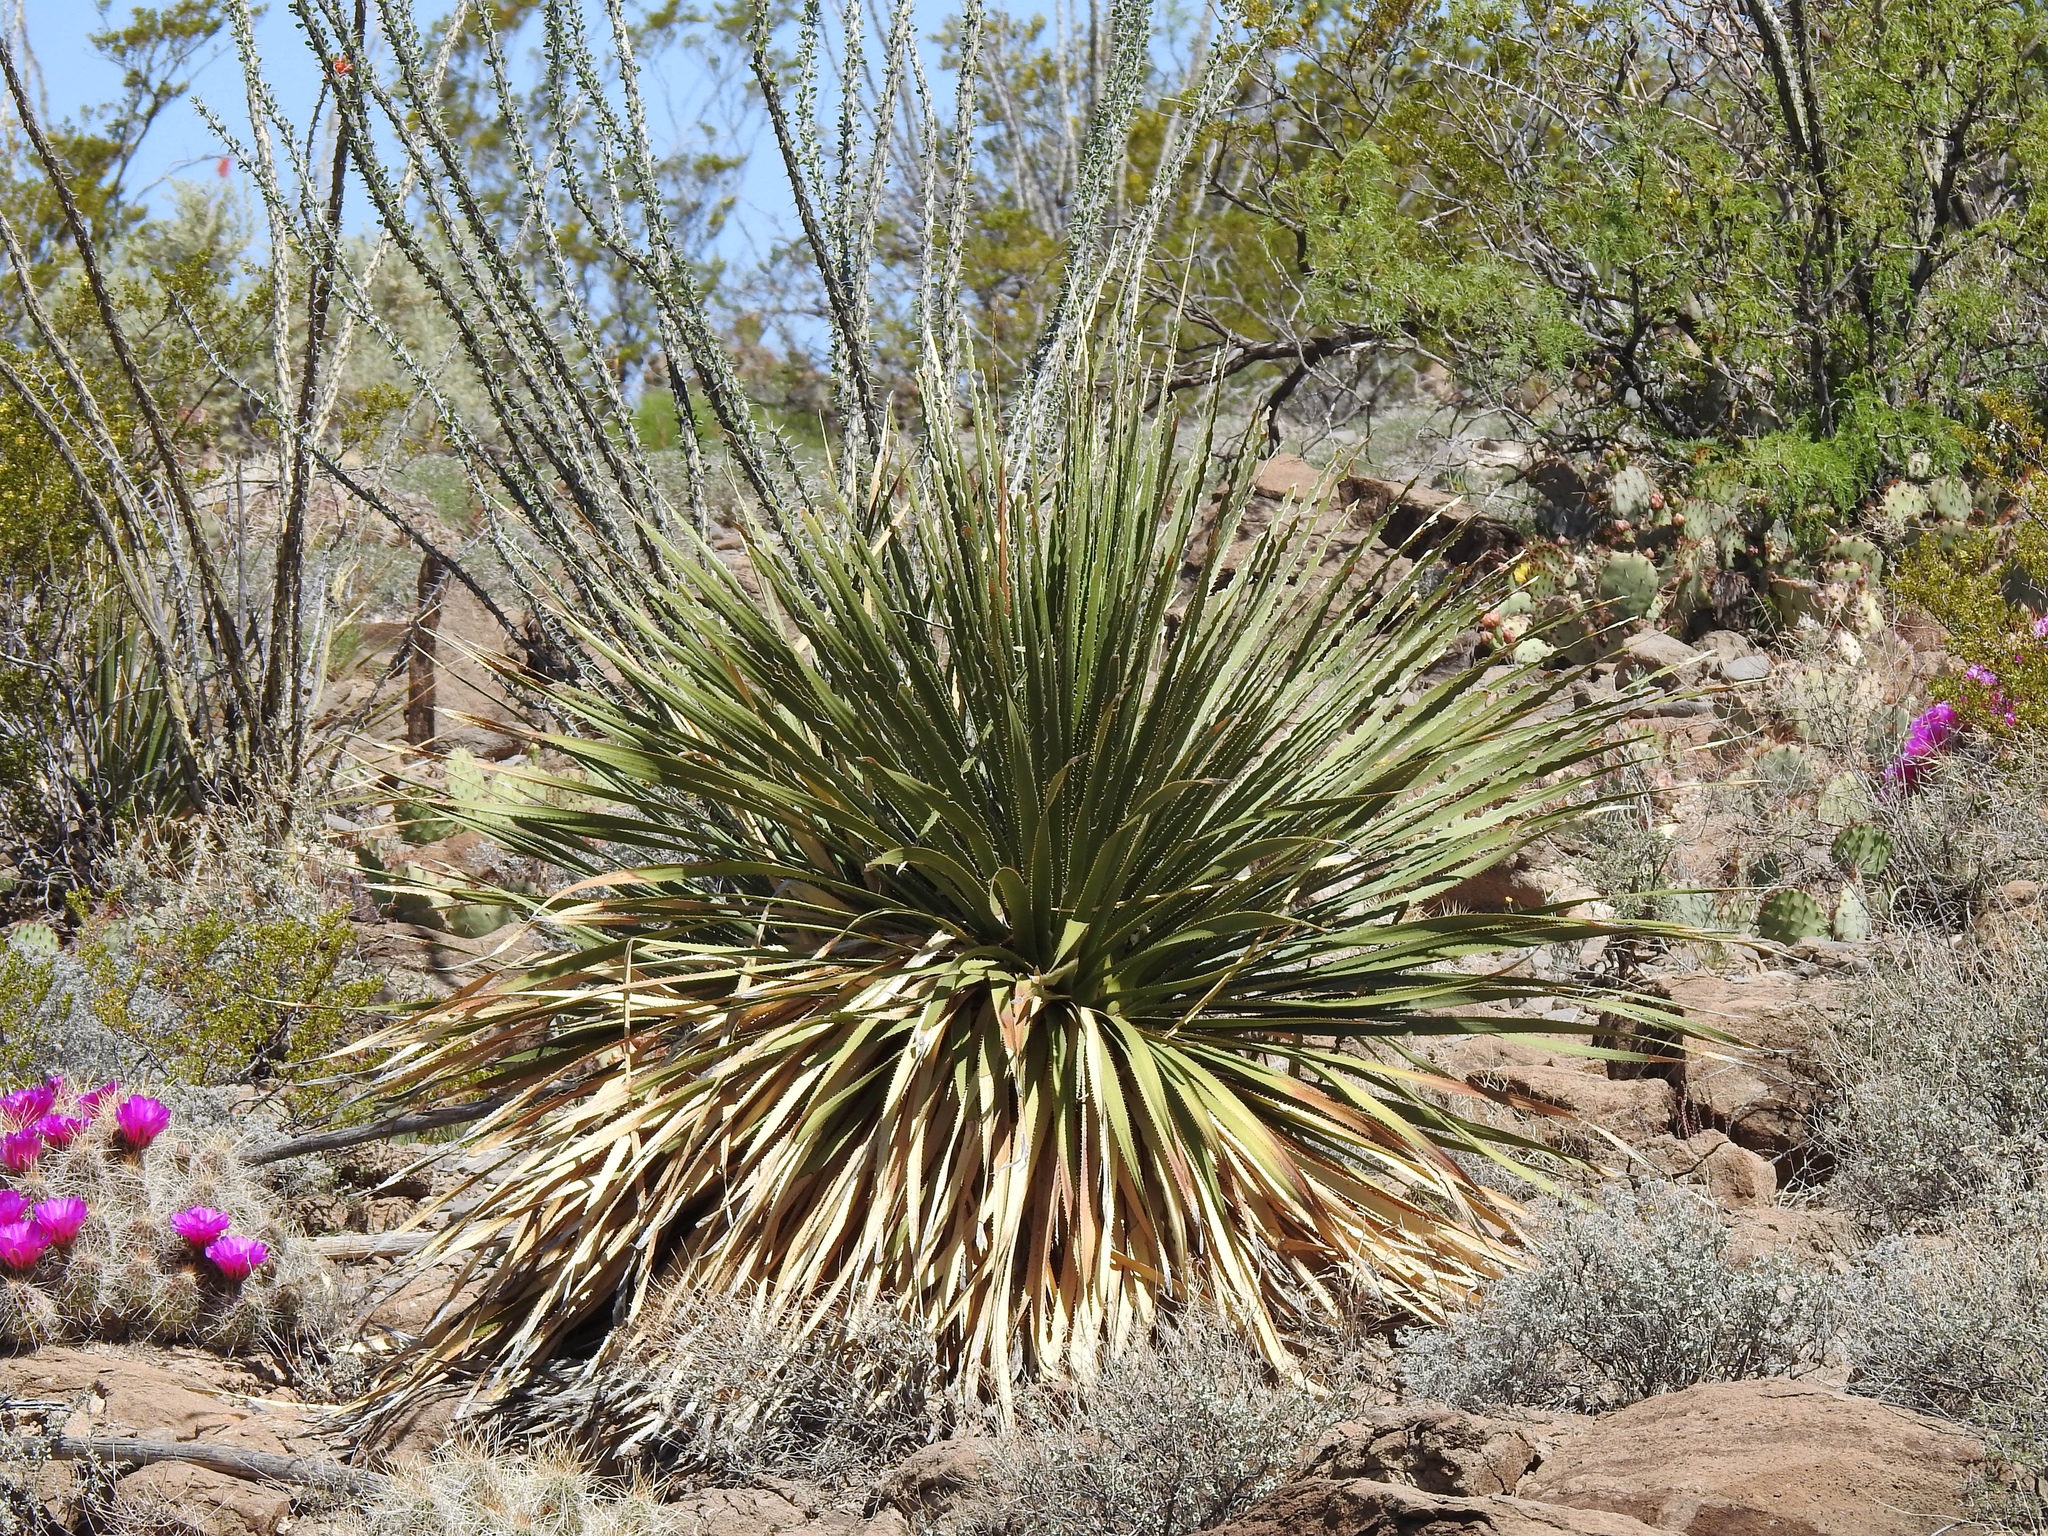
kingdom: Plantae
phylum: Tracheophyta
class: Liliopsida
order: Asparagales
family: Asparagaceae
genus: Dasylirion
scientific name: Dasylirion wheeleri
